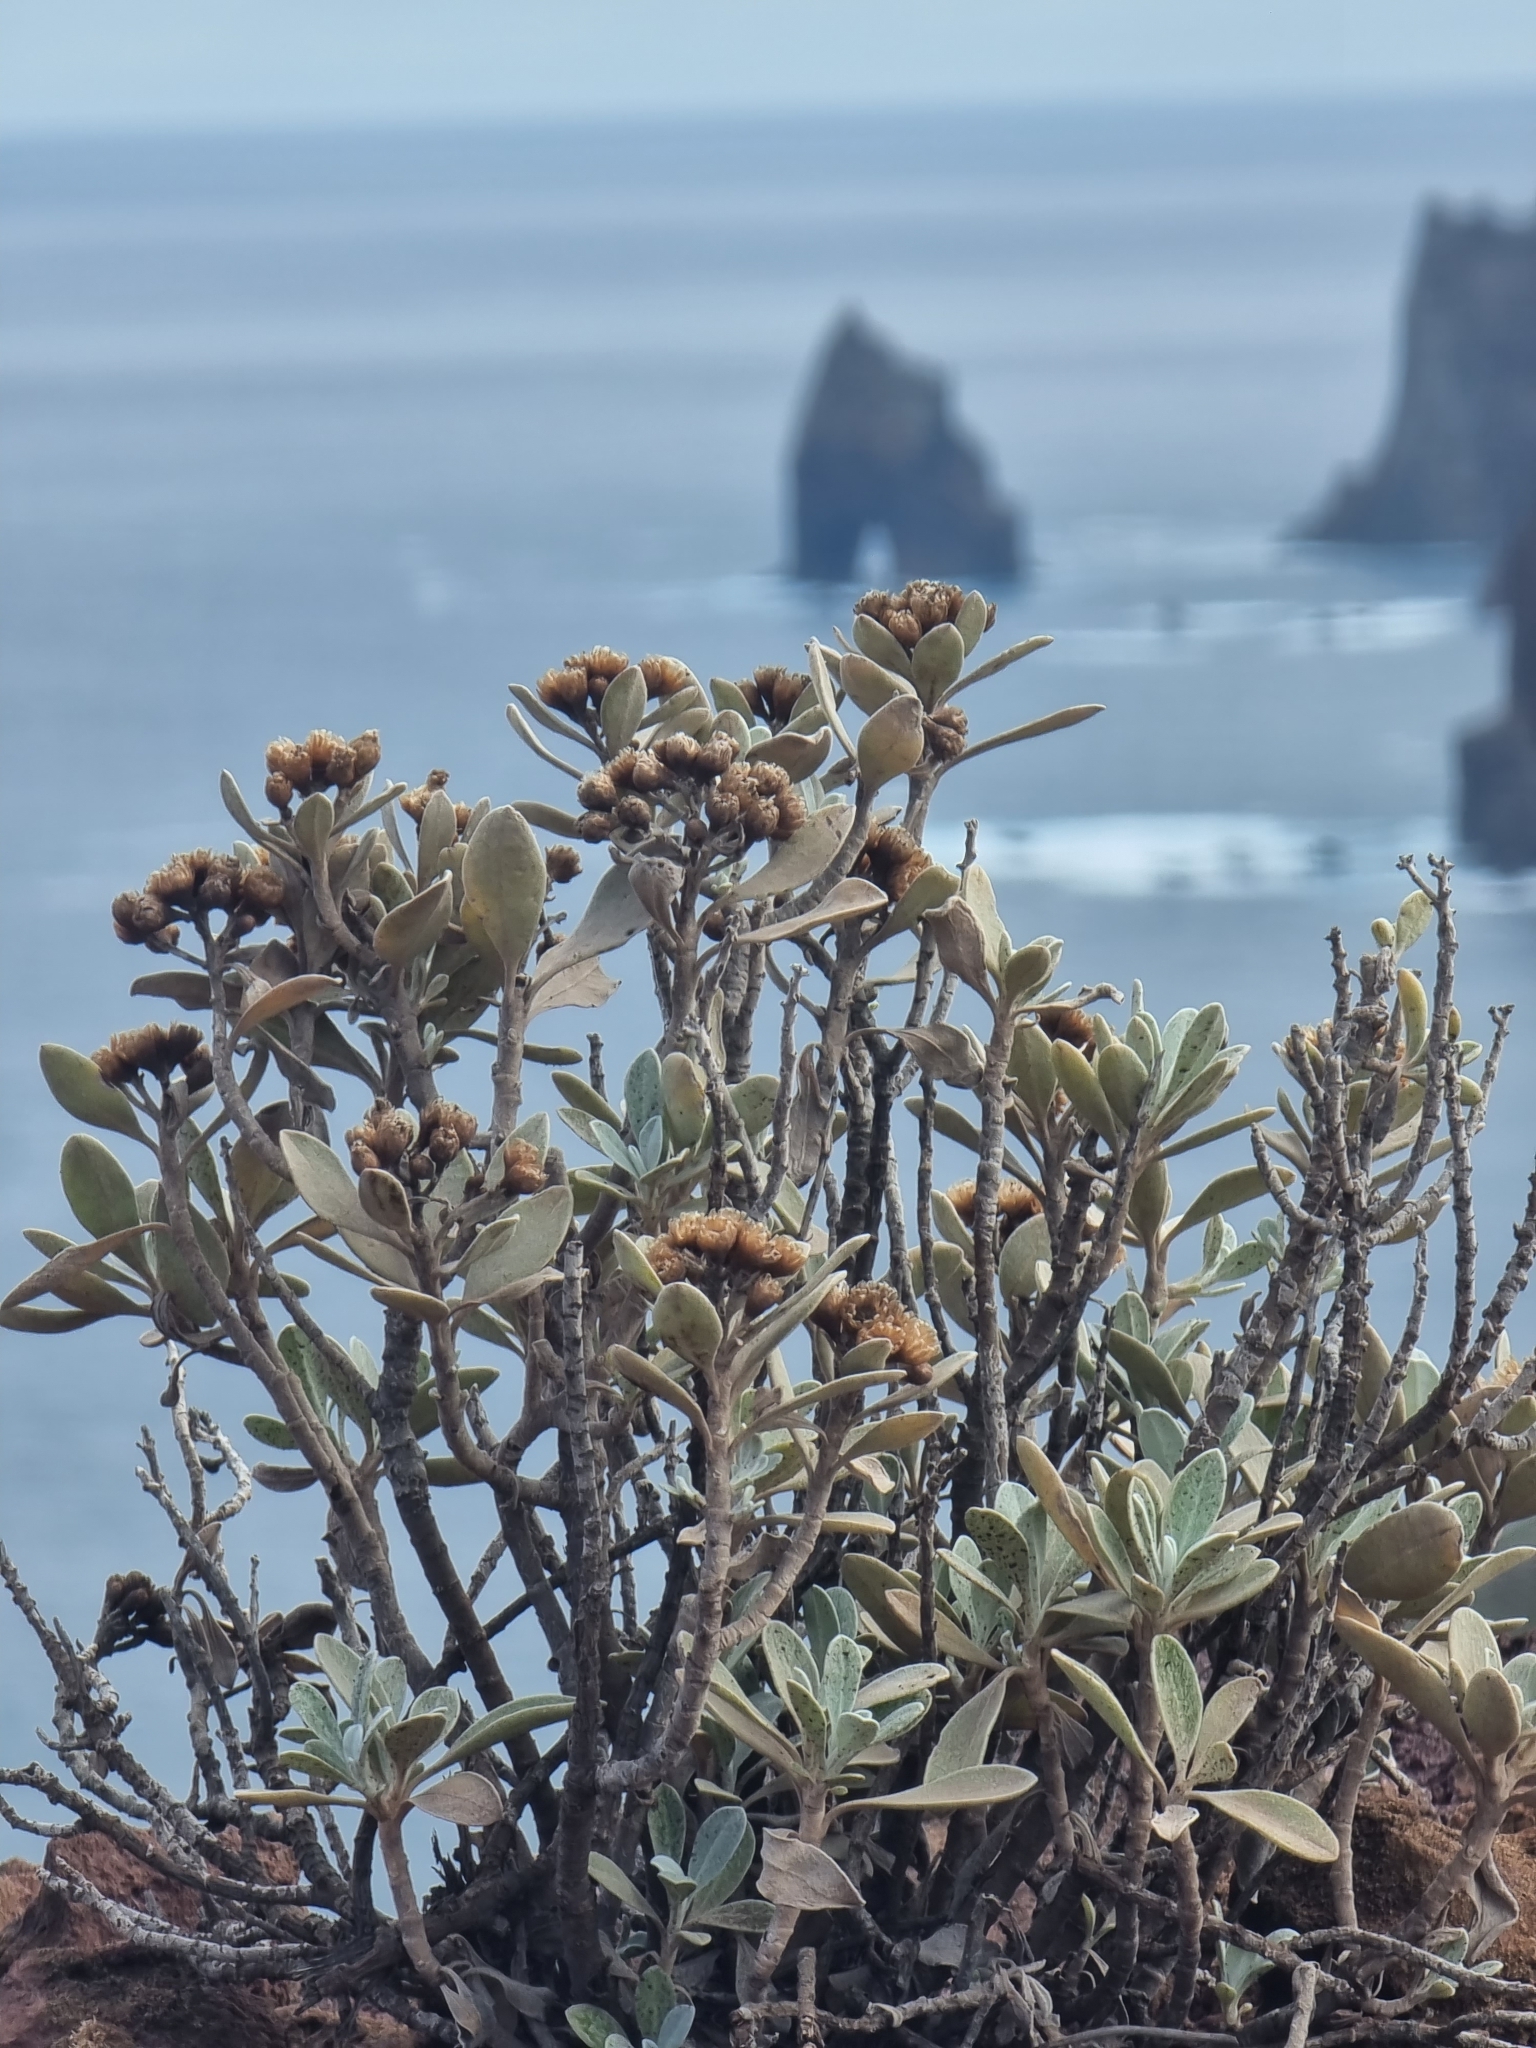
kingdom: Plantae
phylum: Tracheophyta
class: Magnoliopsida
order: Asterales
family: Asteraceae
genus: Helichrysum
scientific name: Helichrysum obconicum
